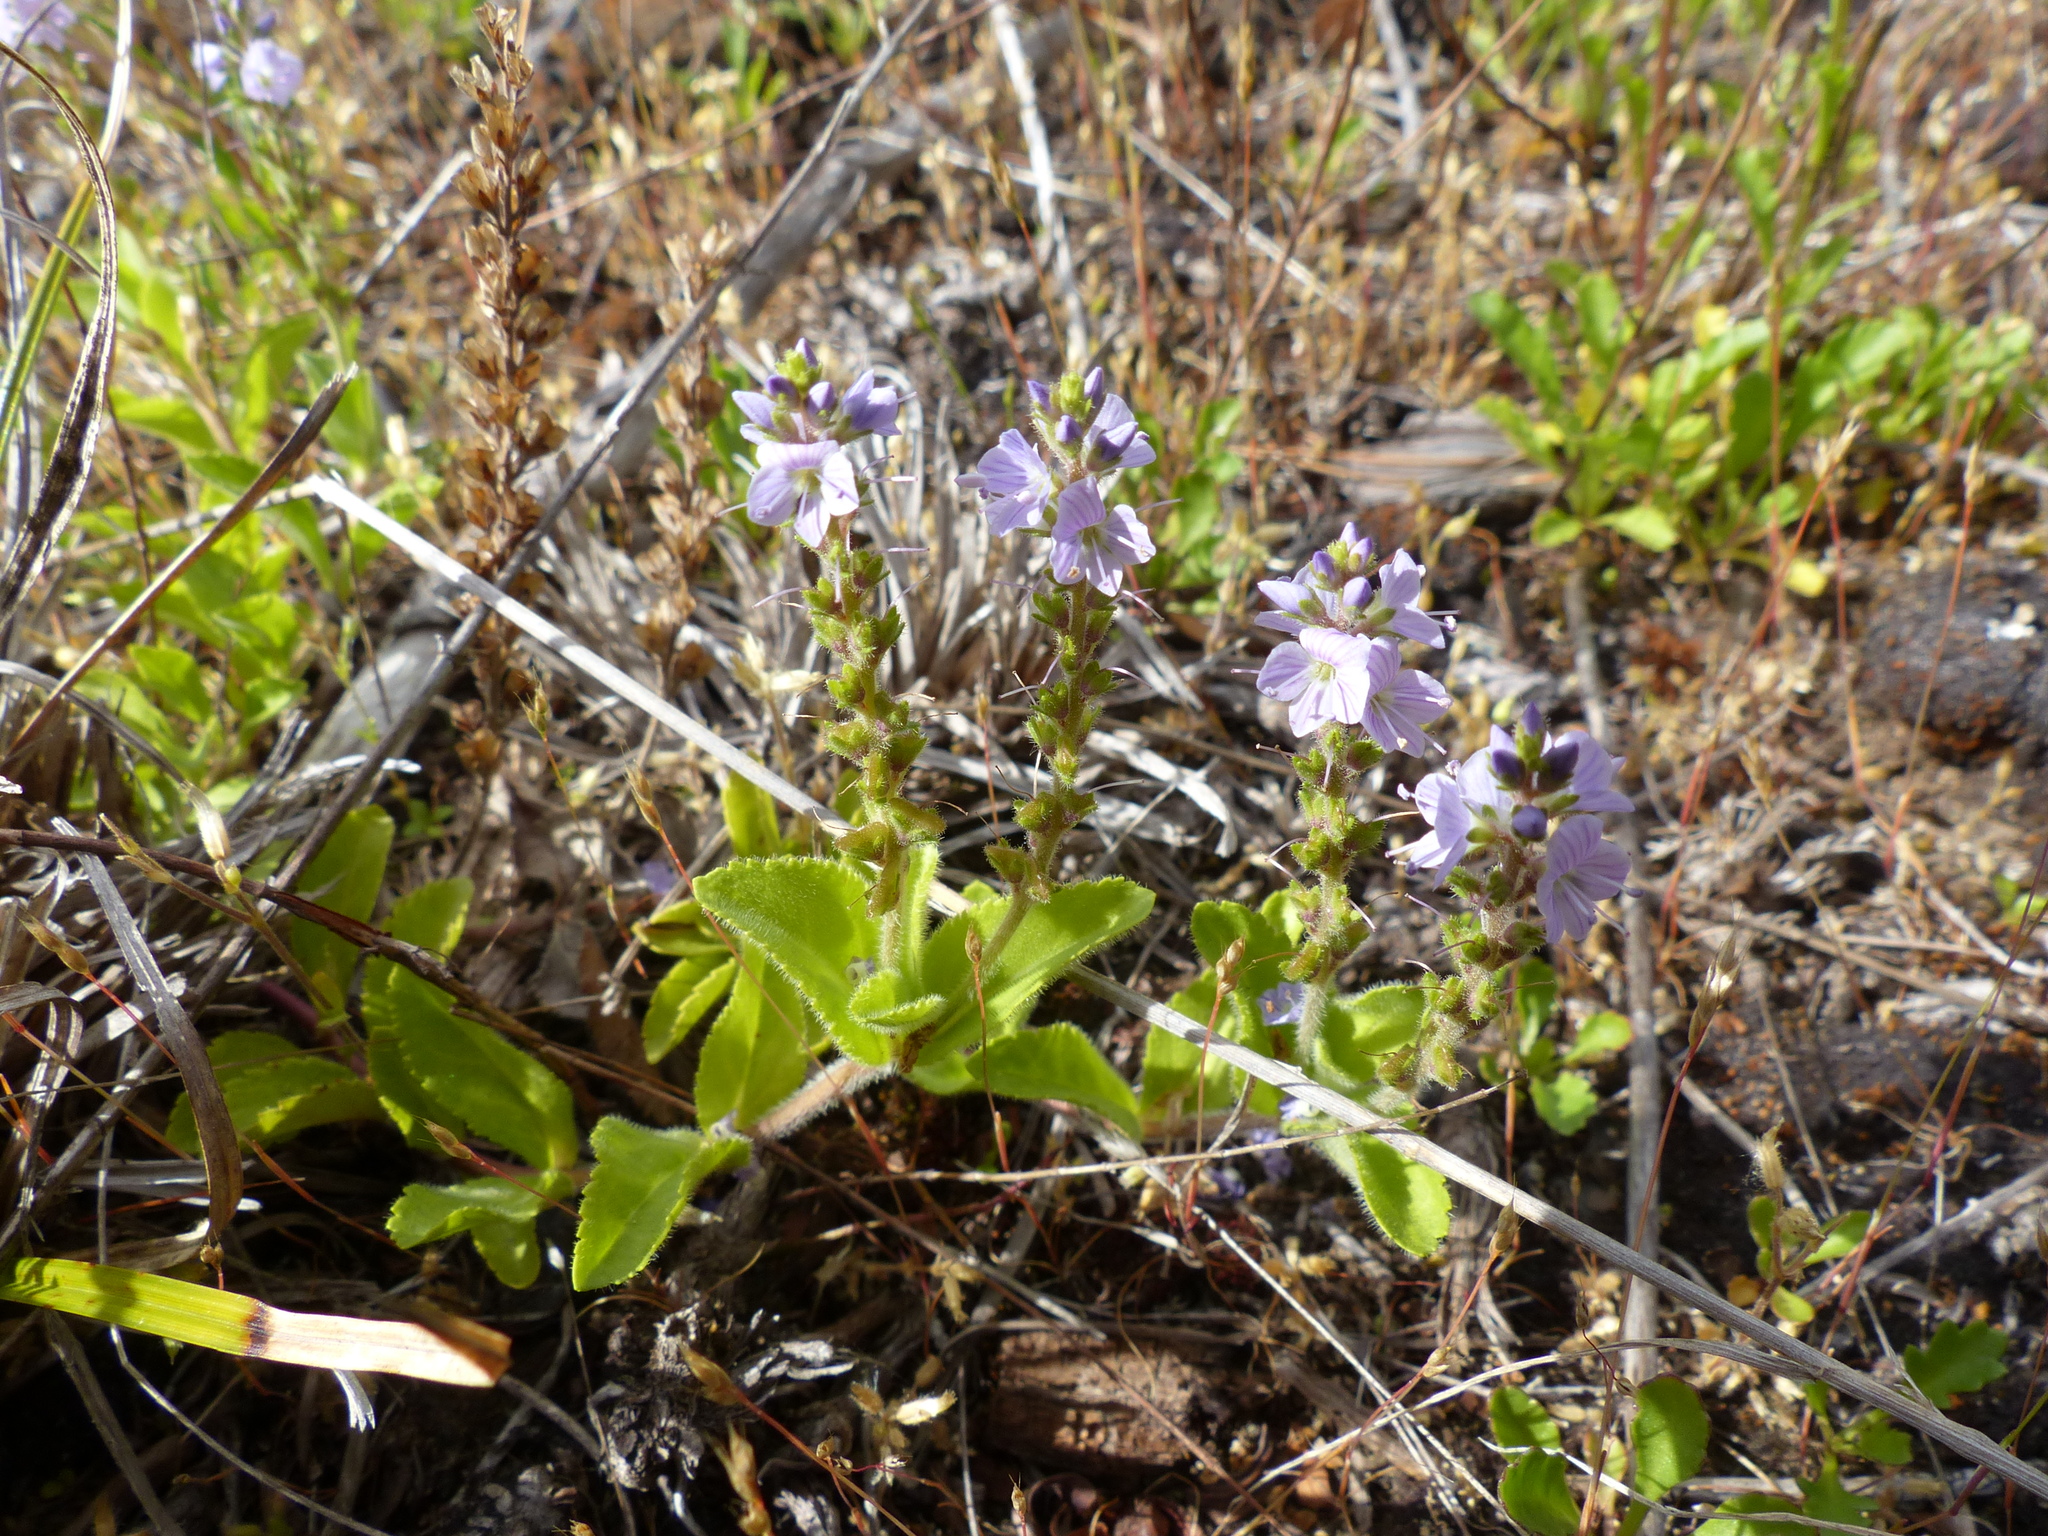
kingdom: Plantae
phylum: Tracheophyta
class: Magnoliopsida
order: Lamiales
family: Plantaginaceae
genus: Veronica
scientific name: Veronica officinalis
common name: Common speedwell
